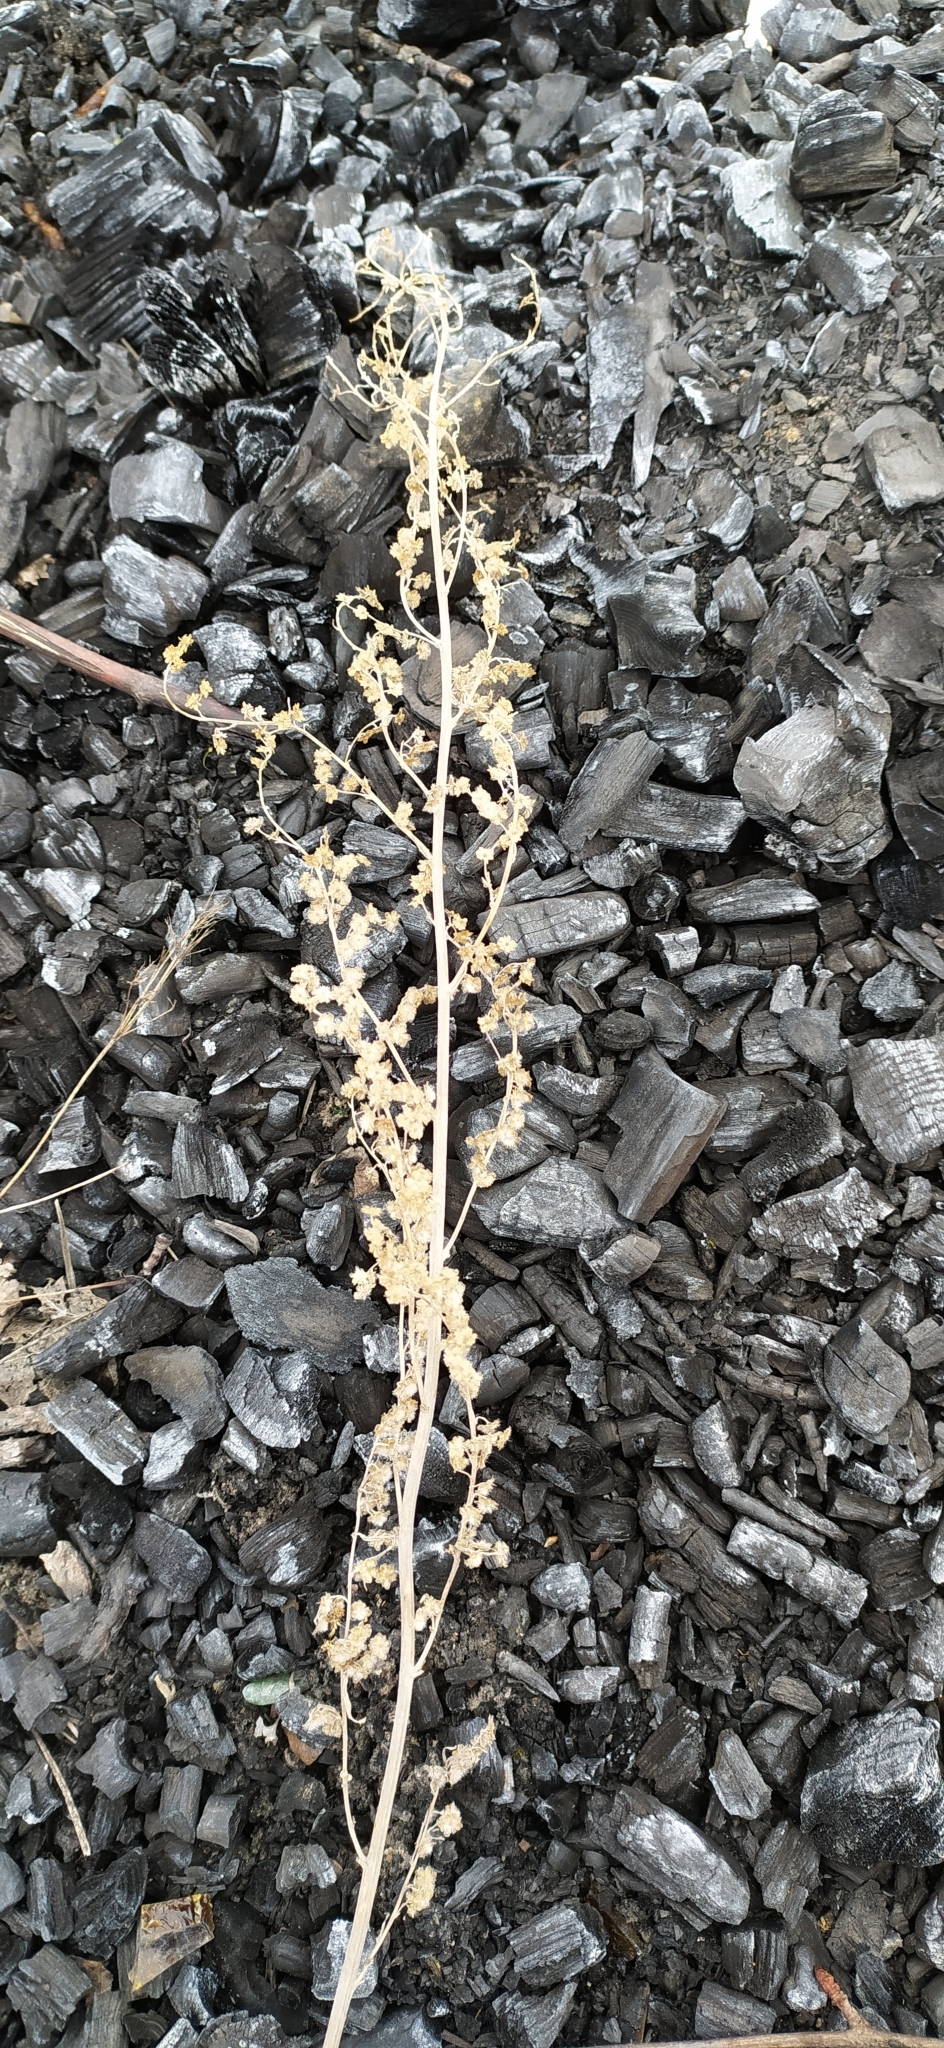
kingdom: Plantae
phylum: Tracheophyta
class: Magnoliopsida
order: Asterales
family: Asteraceae
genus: Artemisia
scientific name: Artemisia absinthium
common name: Wormwood
